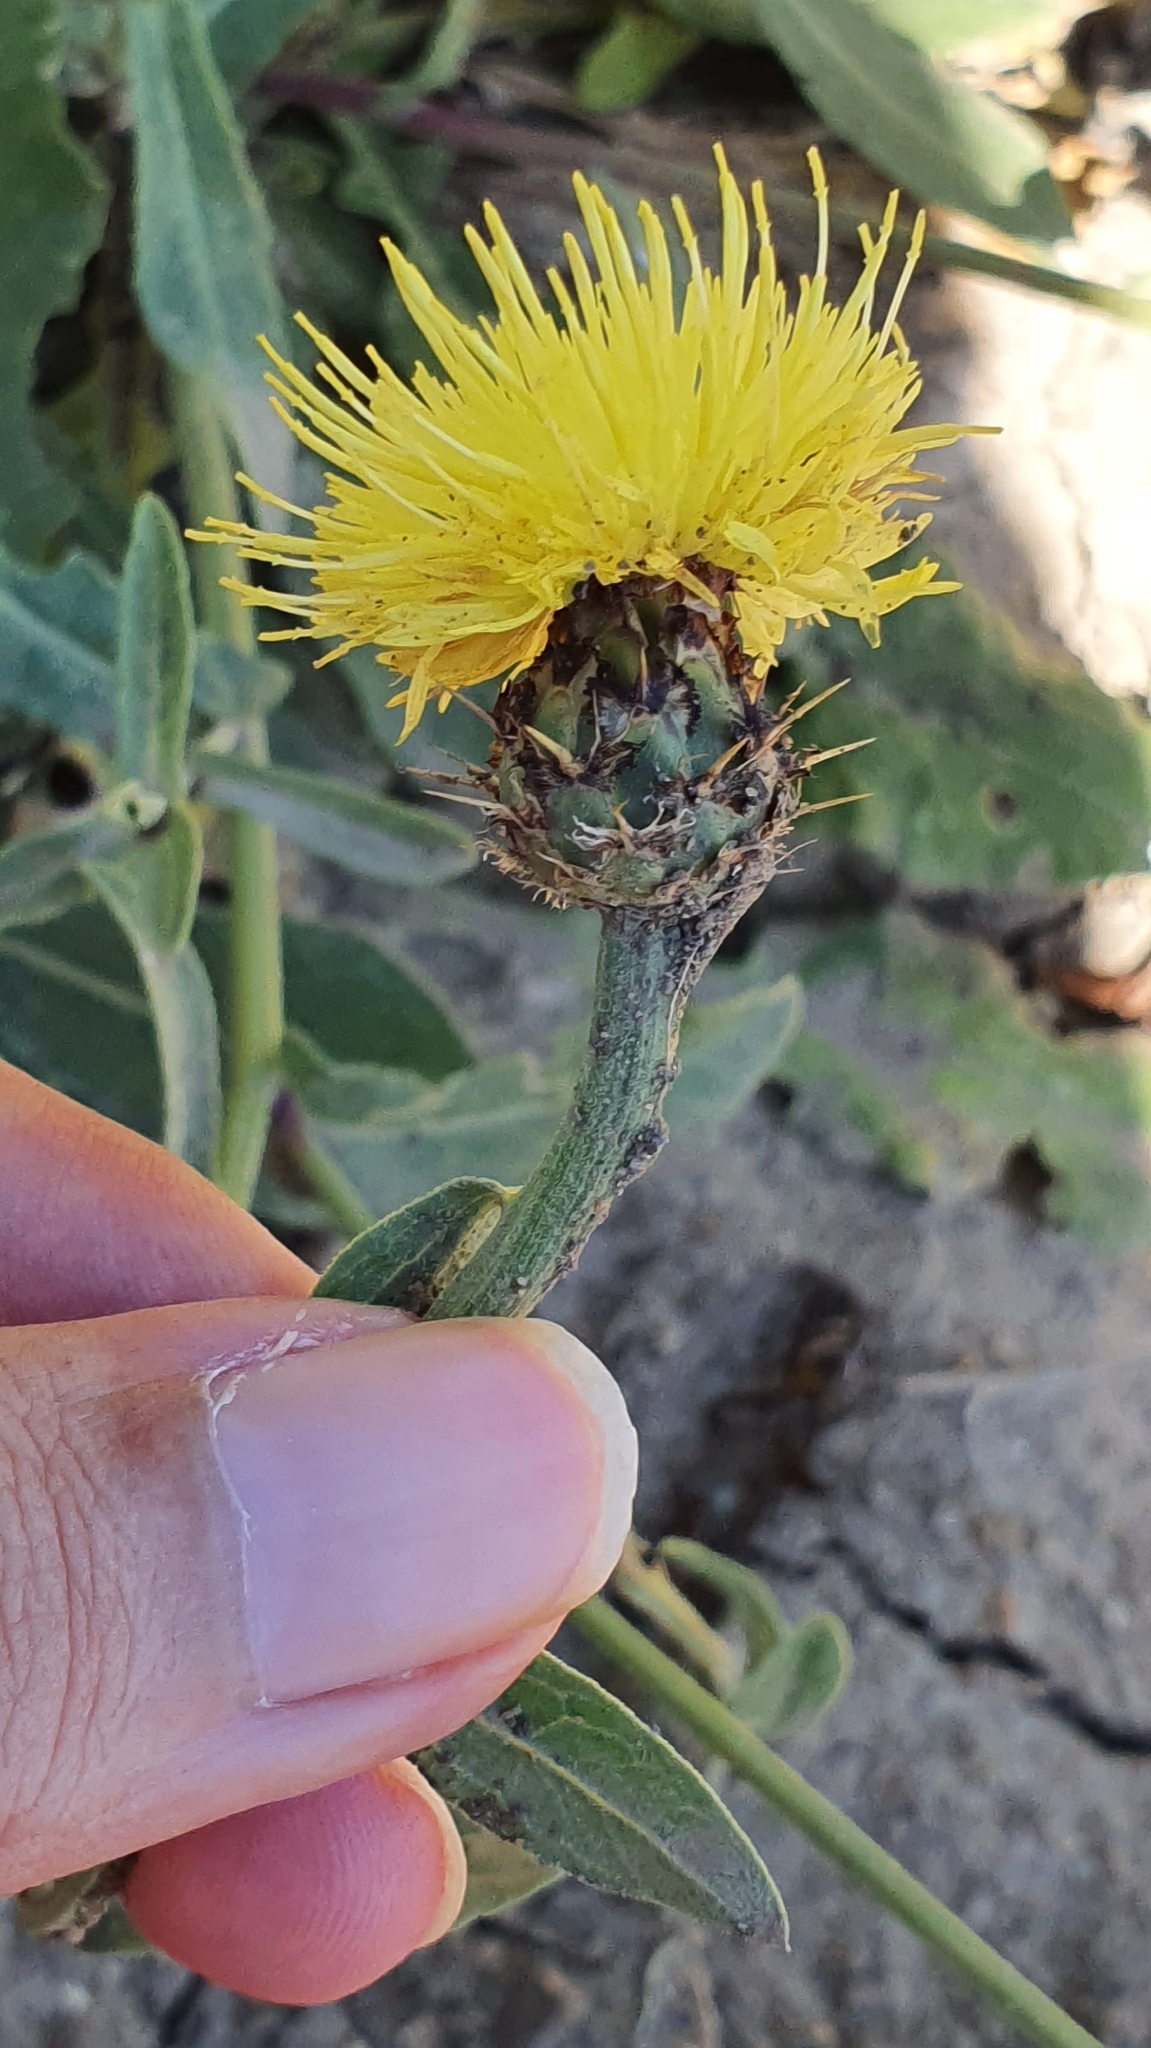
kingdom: Plantae
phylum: Tracheophyta
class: Magnoliopsida
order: Asterales
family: Asteraceae
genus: Centaurea
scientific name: Centaurea sicula
